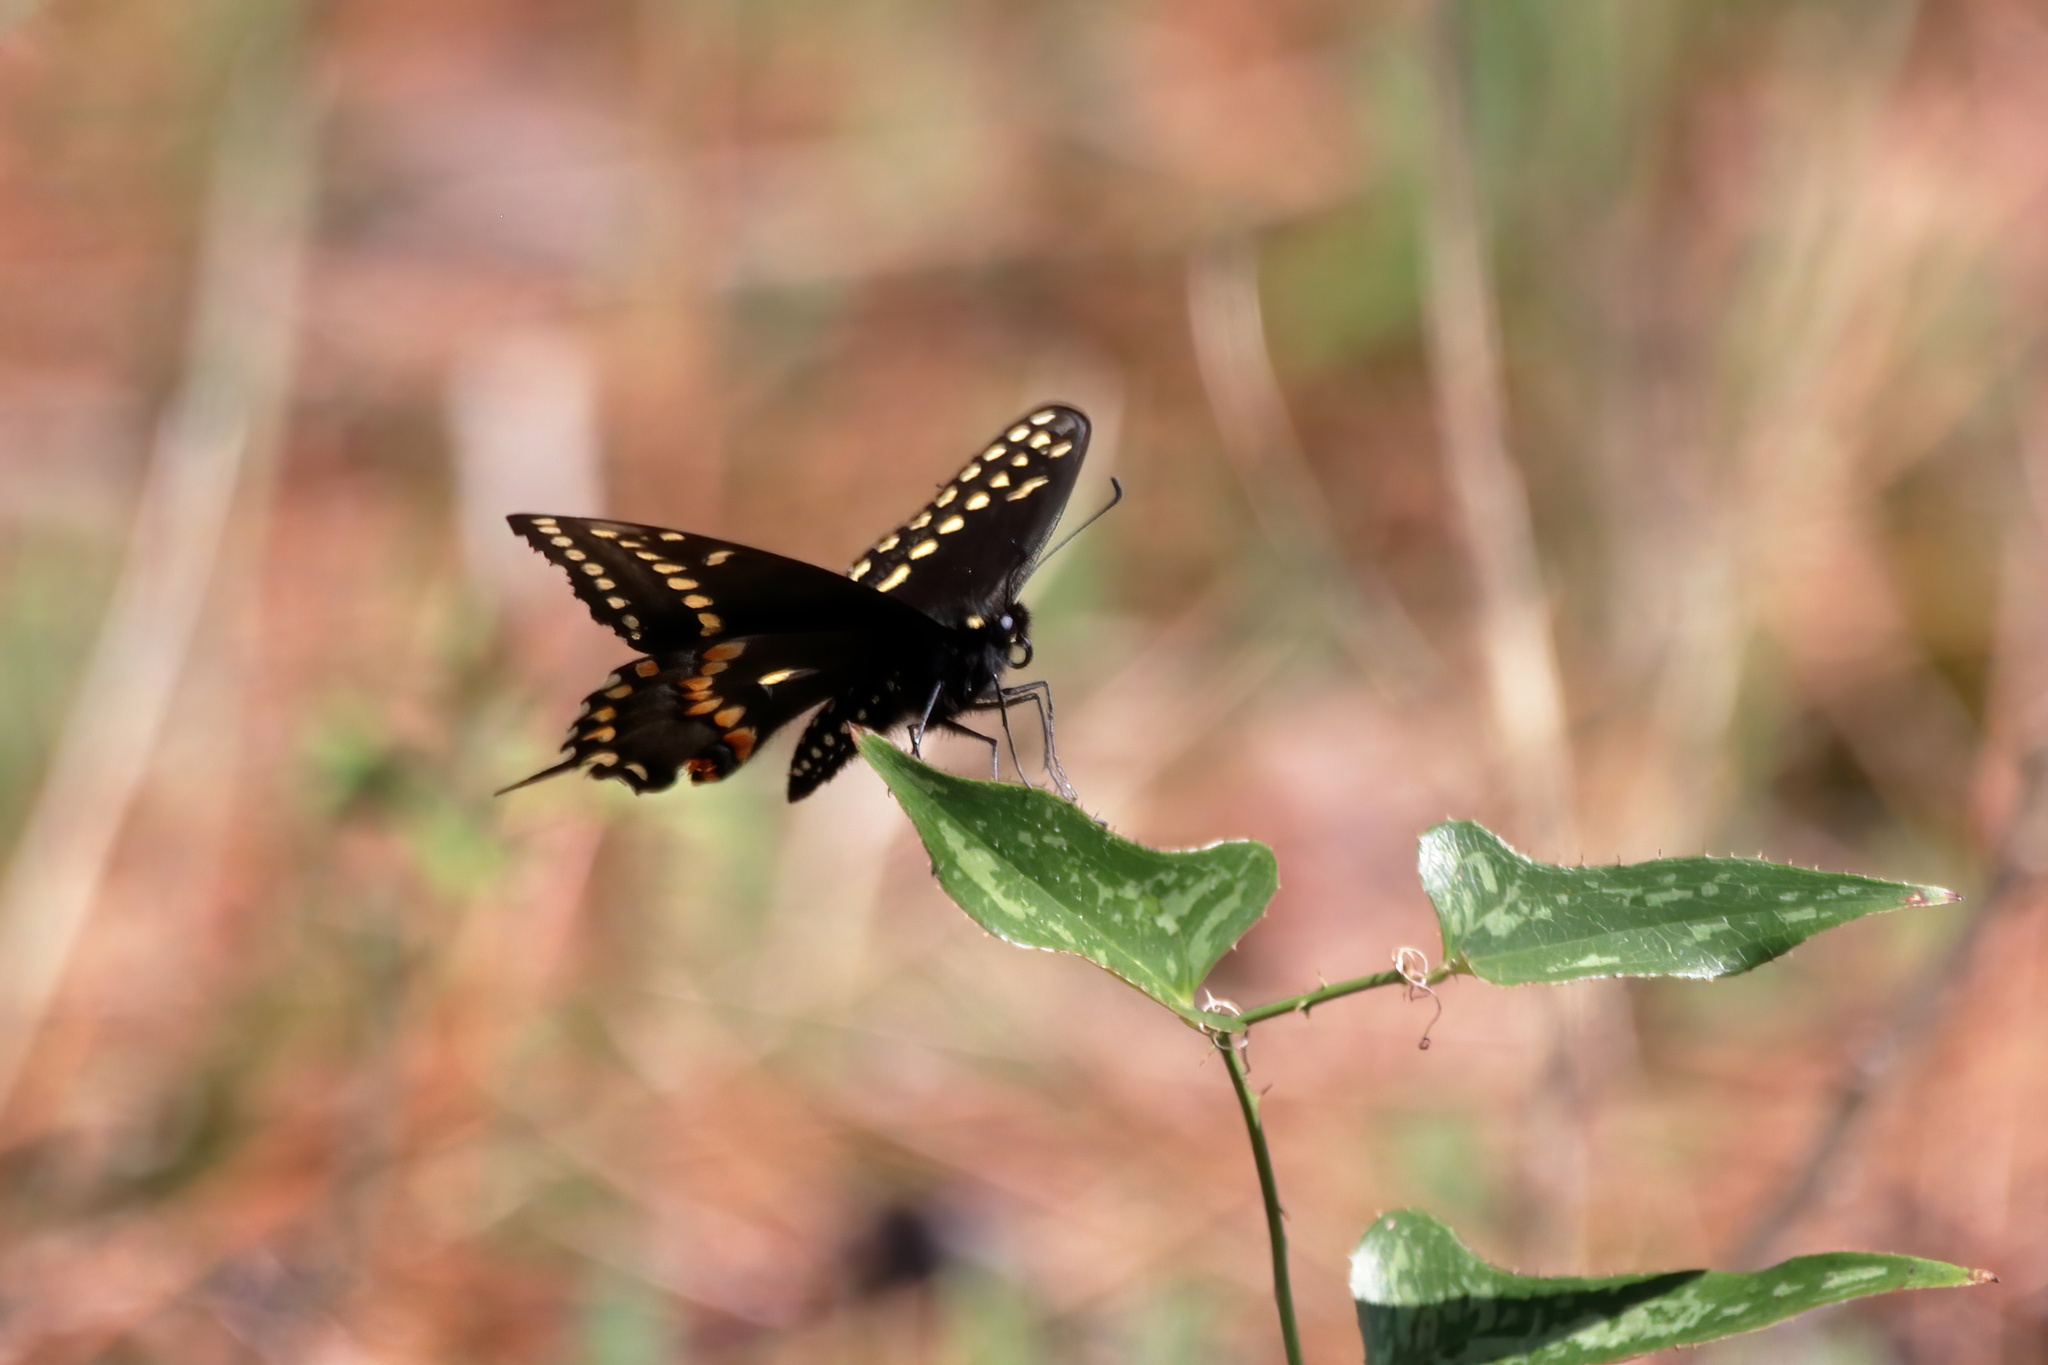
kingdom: Animalia
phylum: Arthropoda
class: Insecta
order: Lepidoptera
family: Papilionidae
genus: Papilio
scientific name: Papilio polyxenes
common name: Black swallowtail
